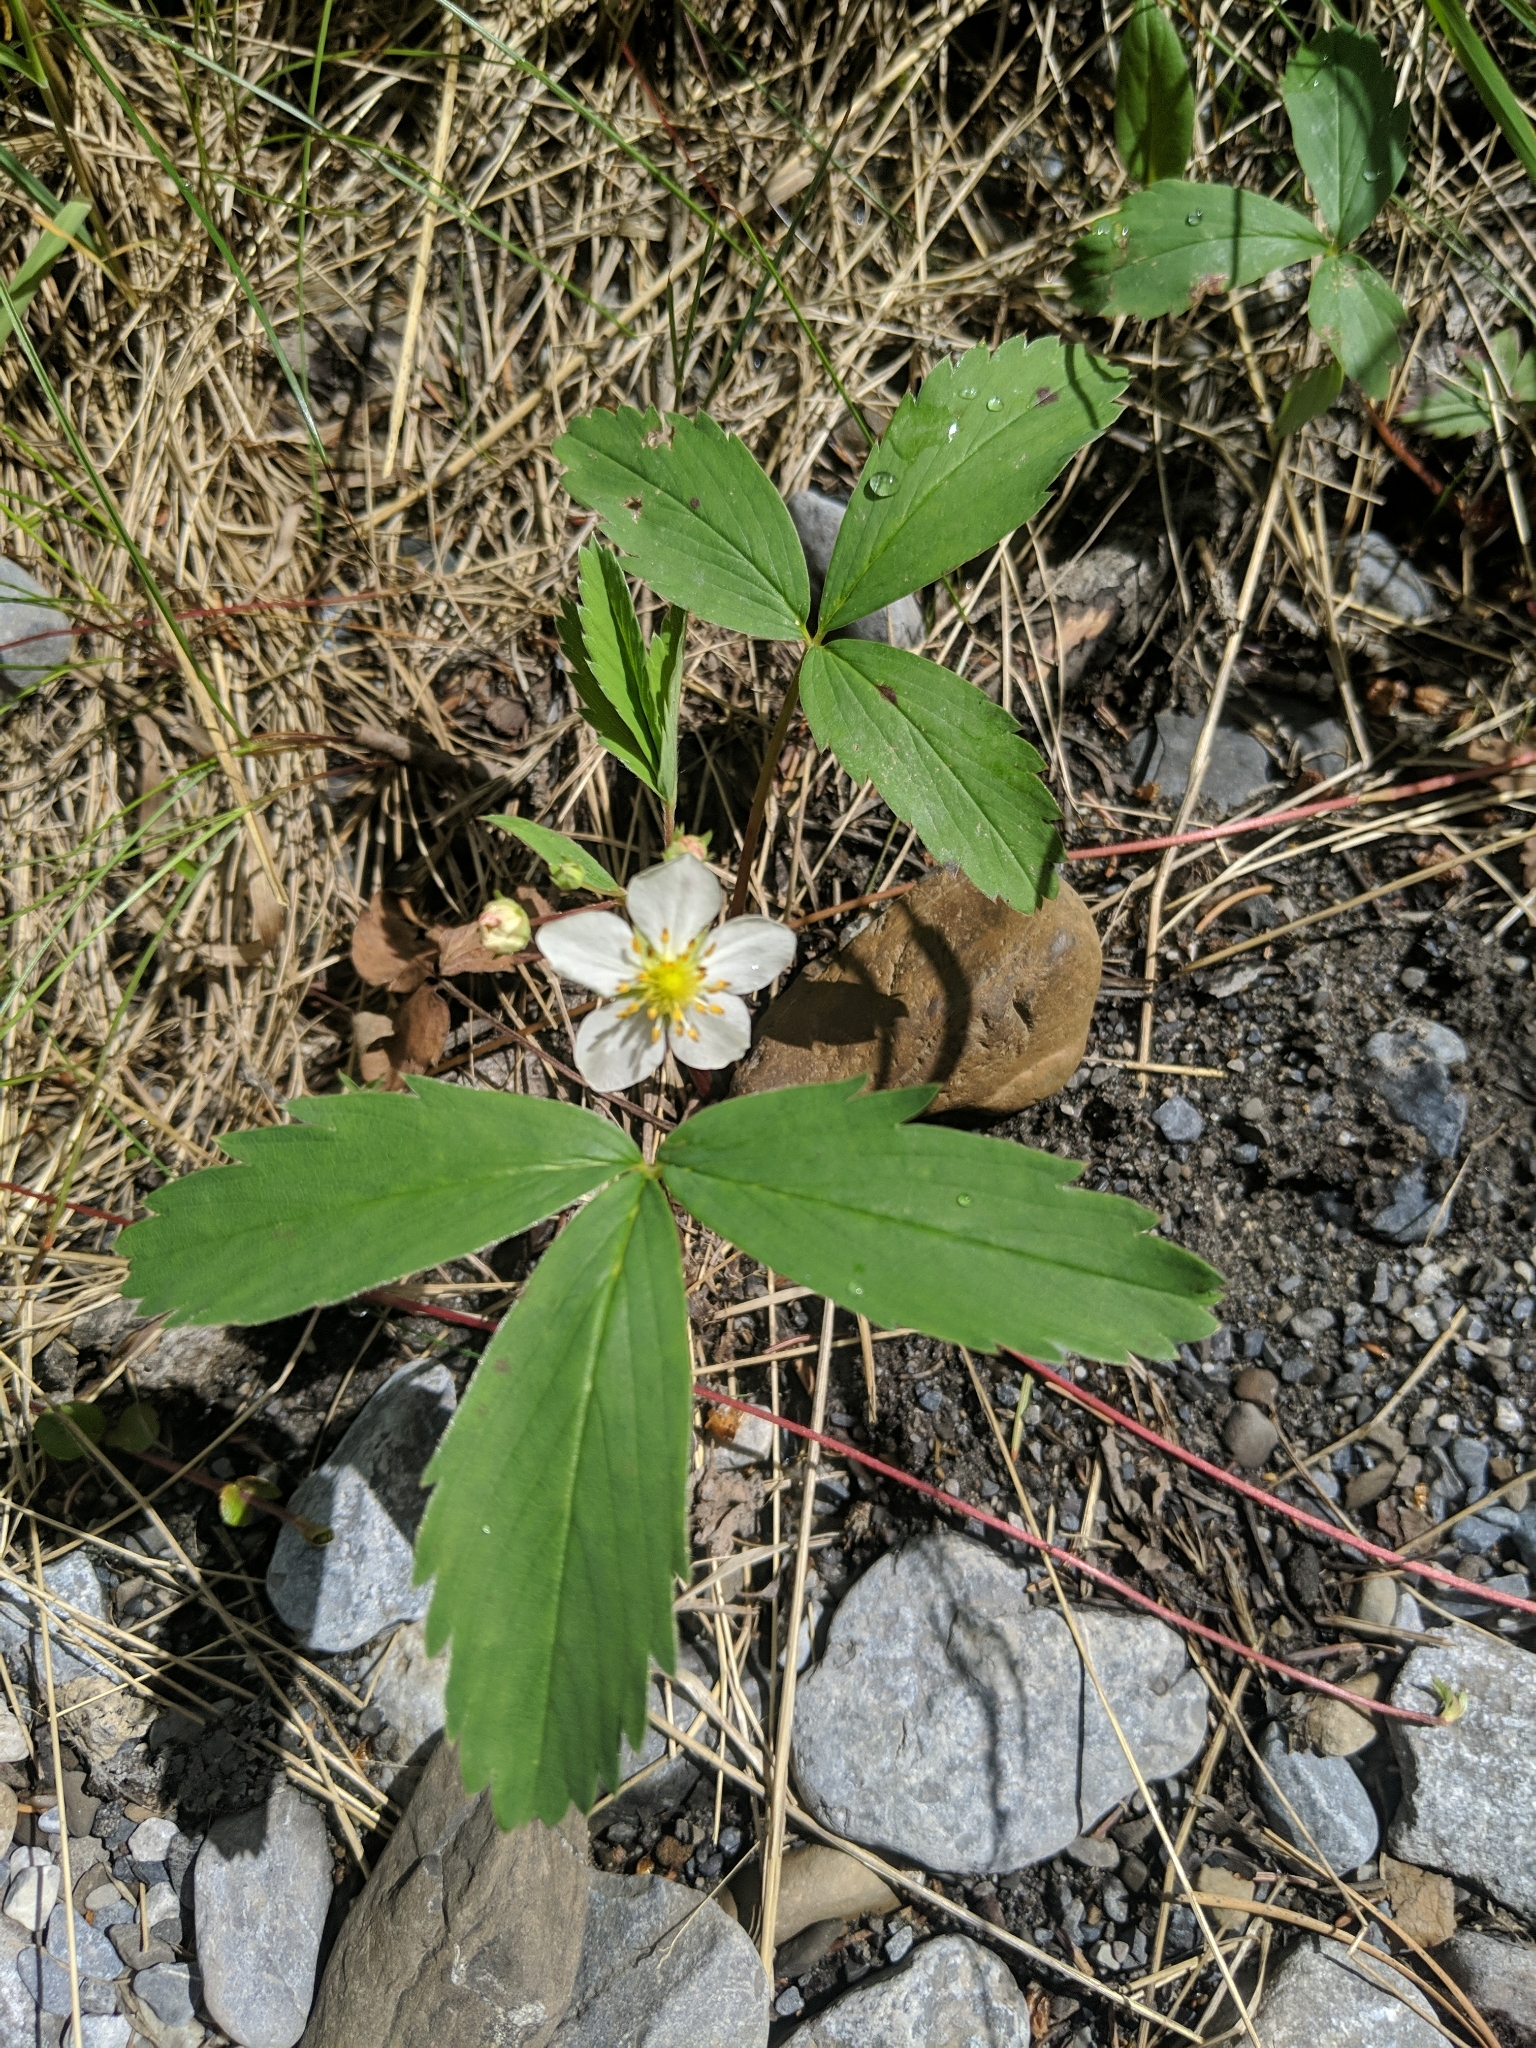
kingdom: Plantae
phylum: Tracheophyta
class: Magnoliopsida
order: Rosales
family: Rosaceae
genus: Fragaria
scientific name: Fragaria virginiana
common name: Thickleaved wild strawberry
